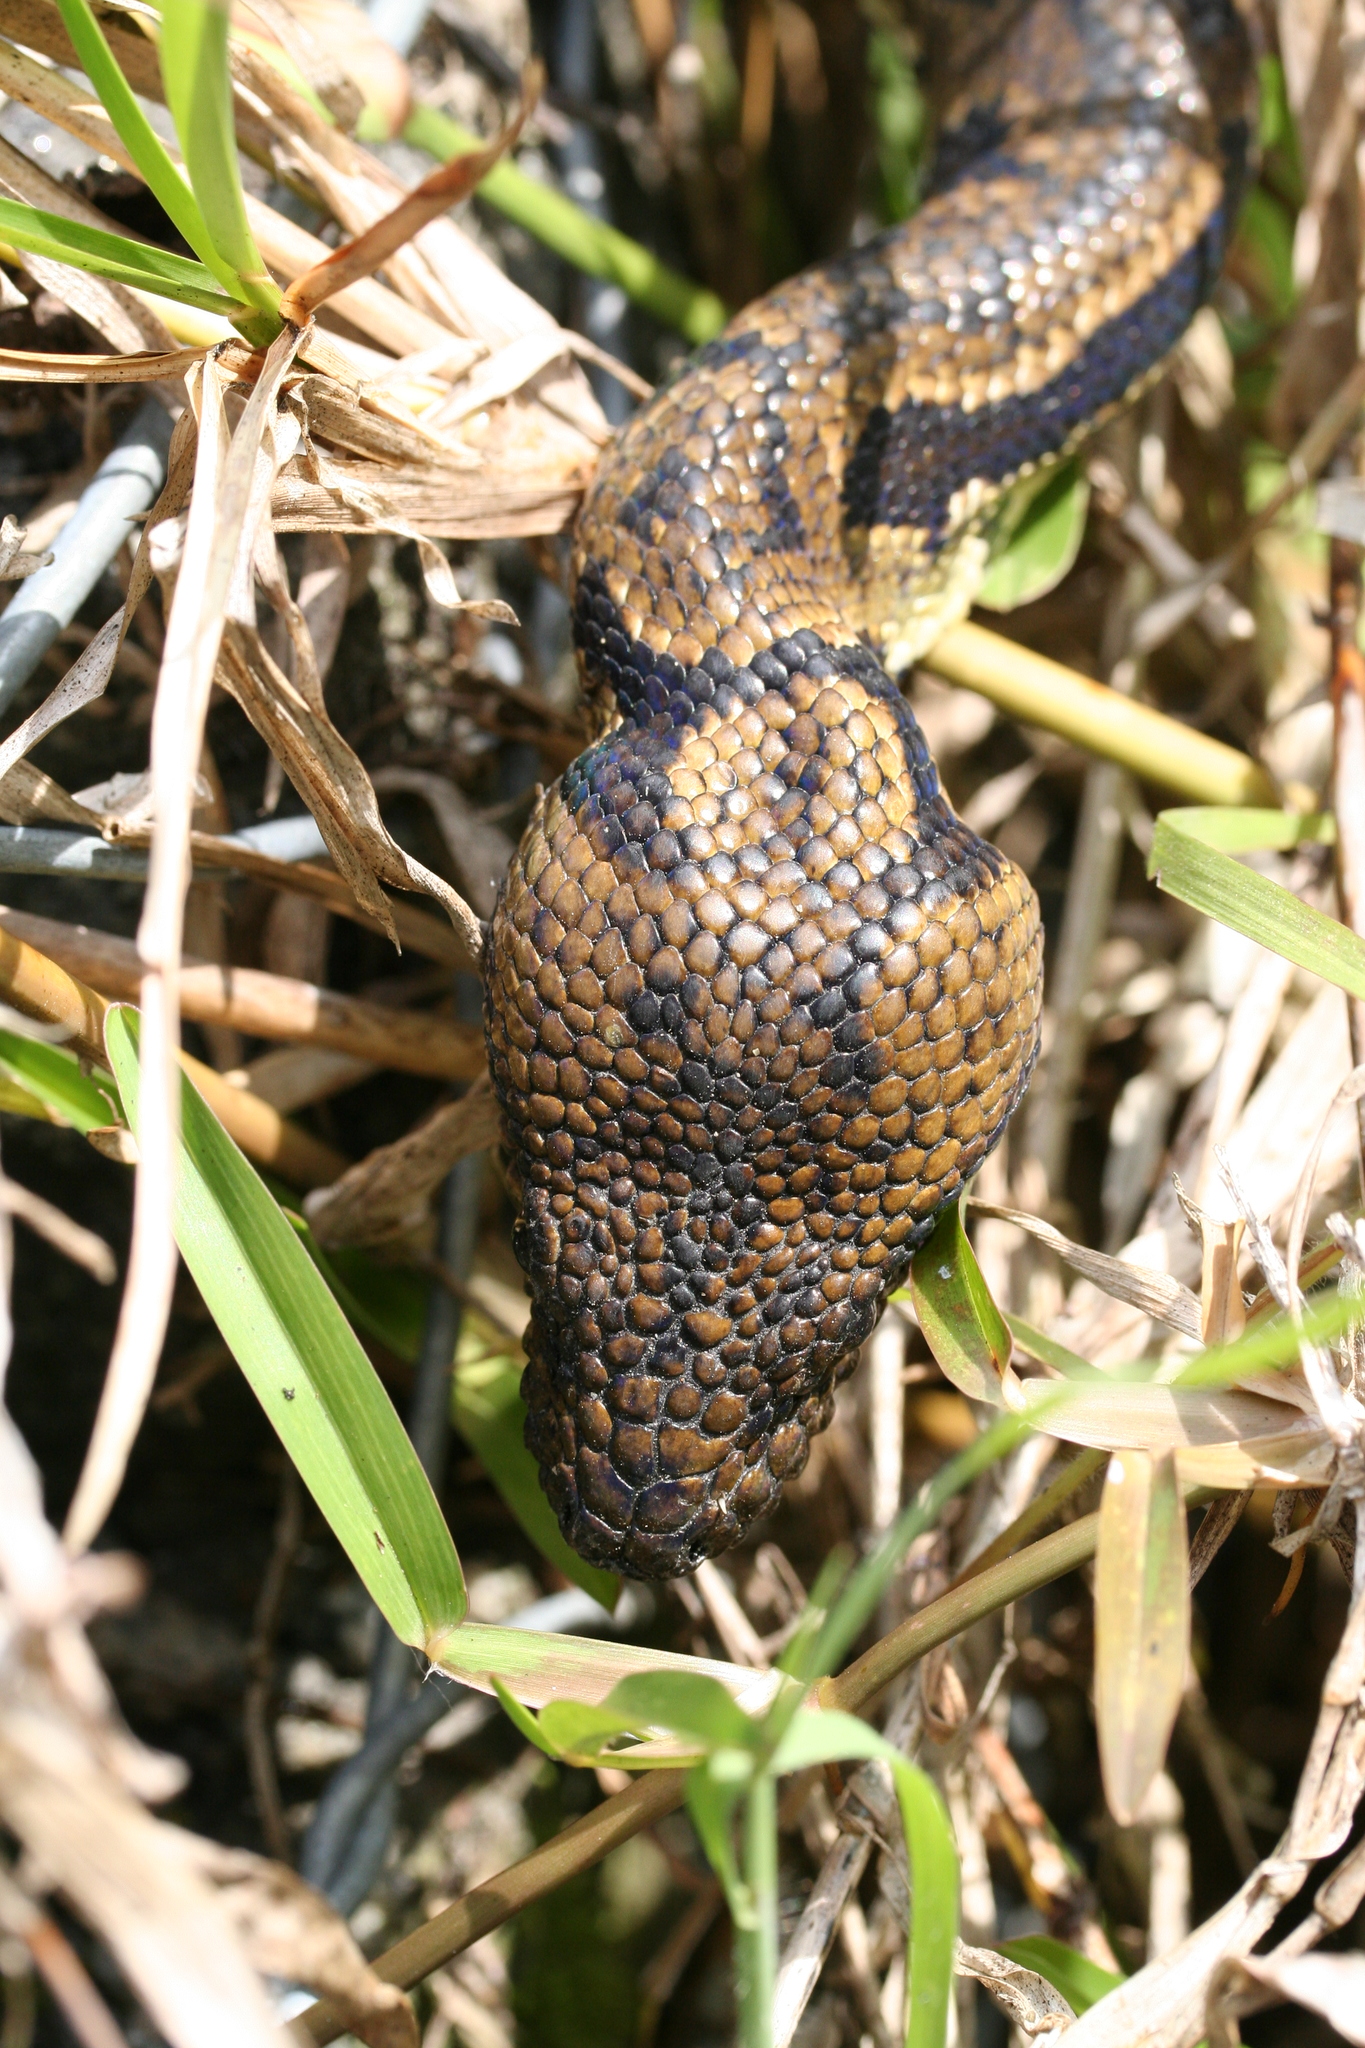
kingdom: Animalia
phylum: Chordata
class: Squamata
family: Boidae
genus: Sanzinia
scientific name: Sanzinia madagascariensis
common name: Madagascar tree boa
